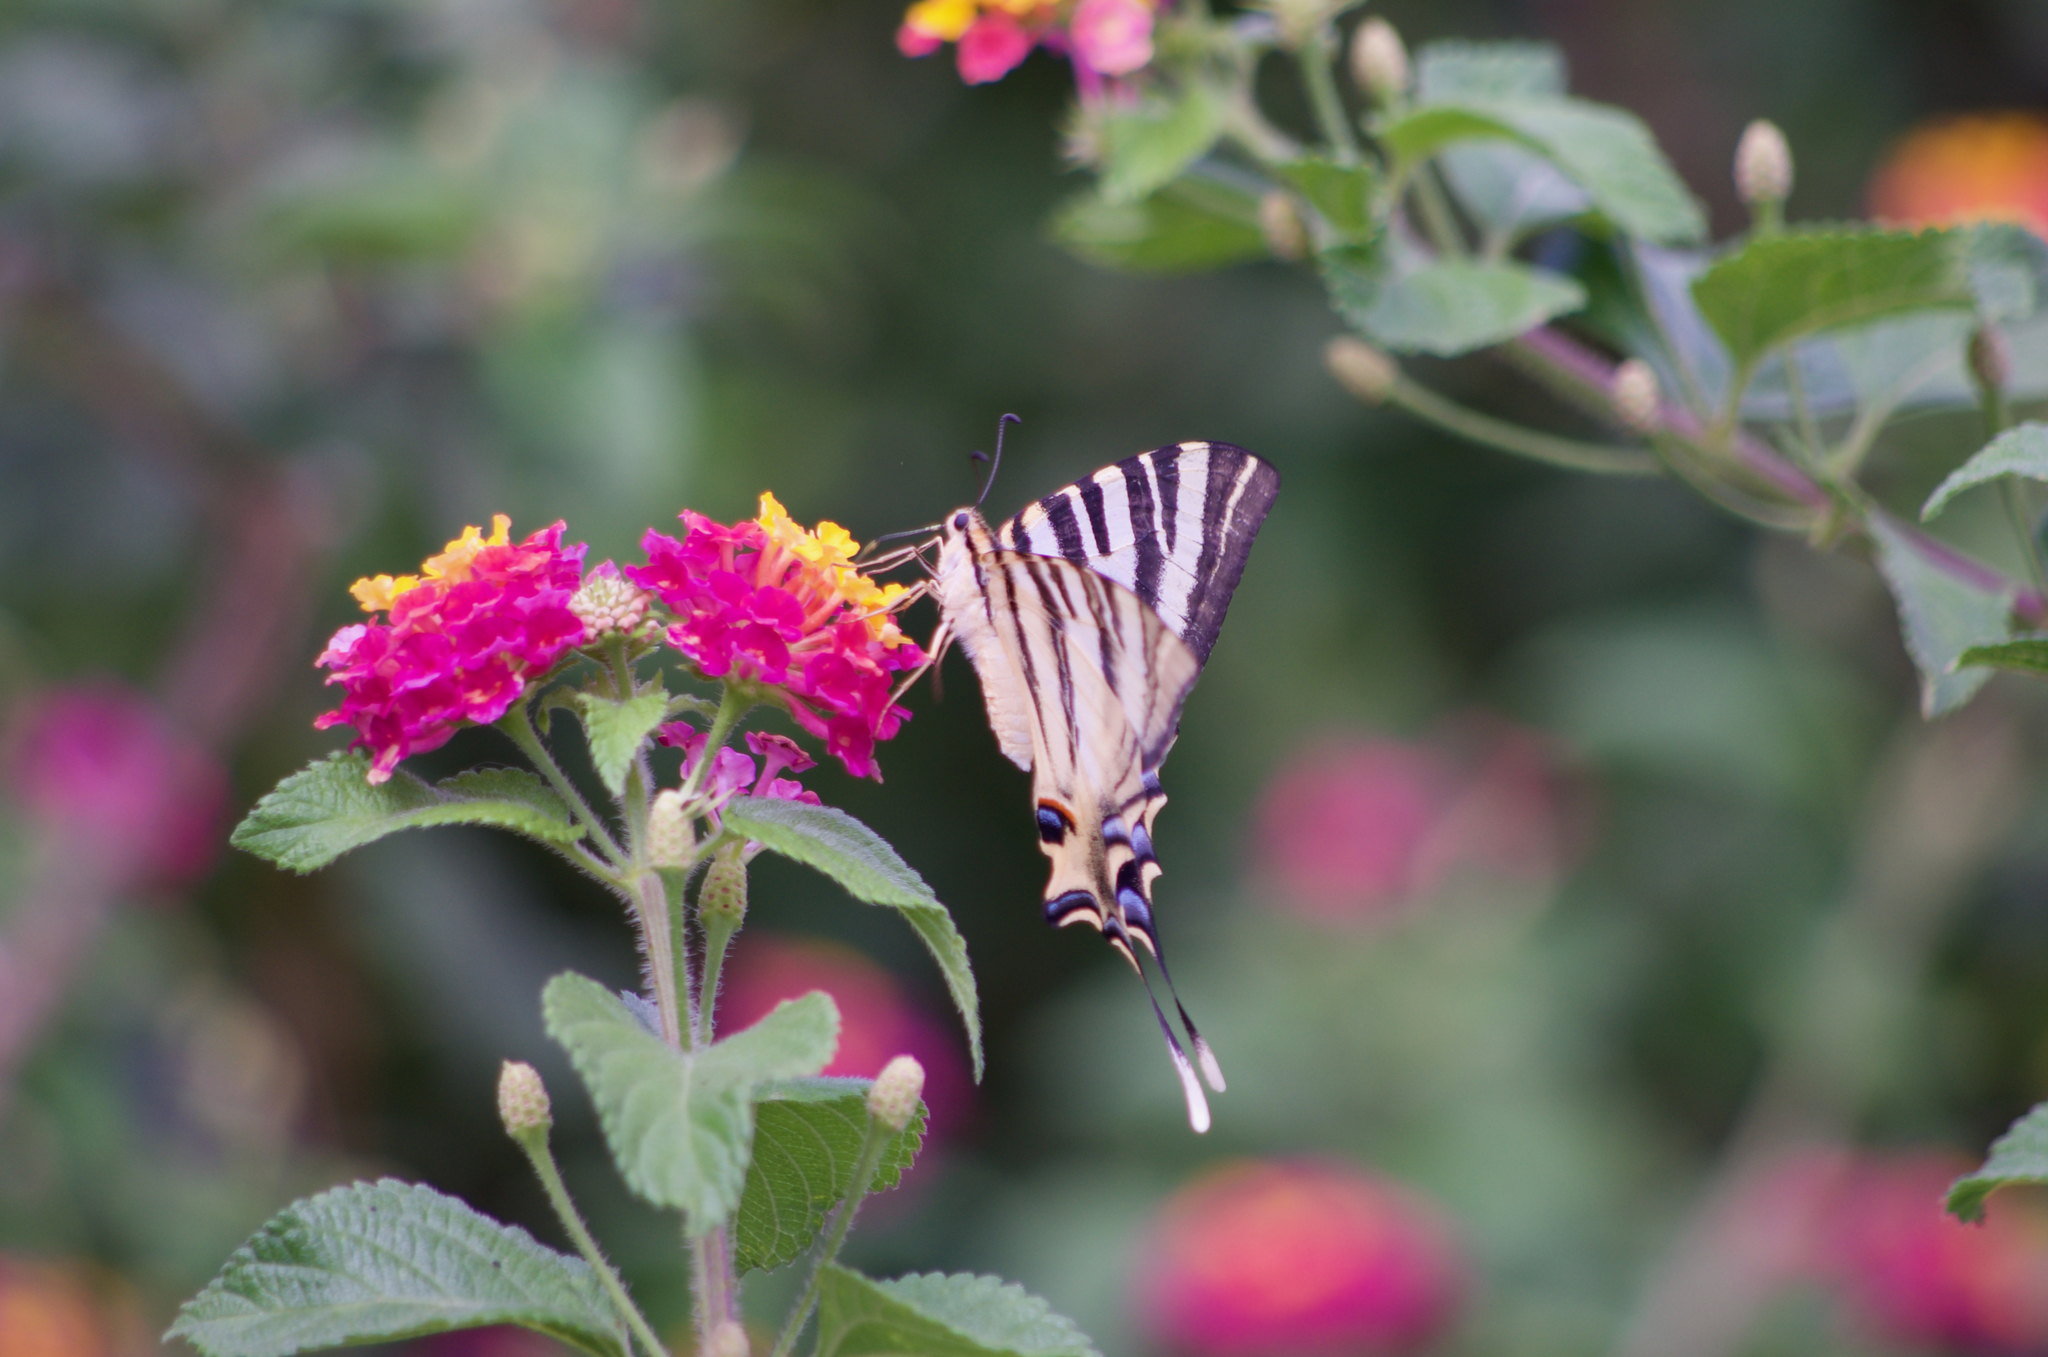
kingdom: Animalia
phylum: Arthropoda
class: Insecta
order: Lepidoptera
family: Papilionidae
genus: Iphiclides
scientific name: Iphiclides feisthamelii
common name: Iberian scarce swallowtail
